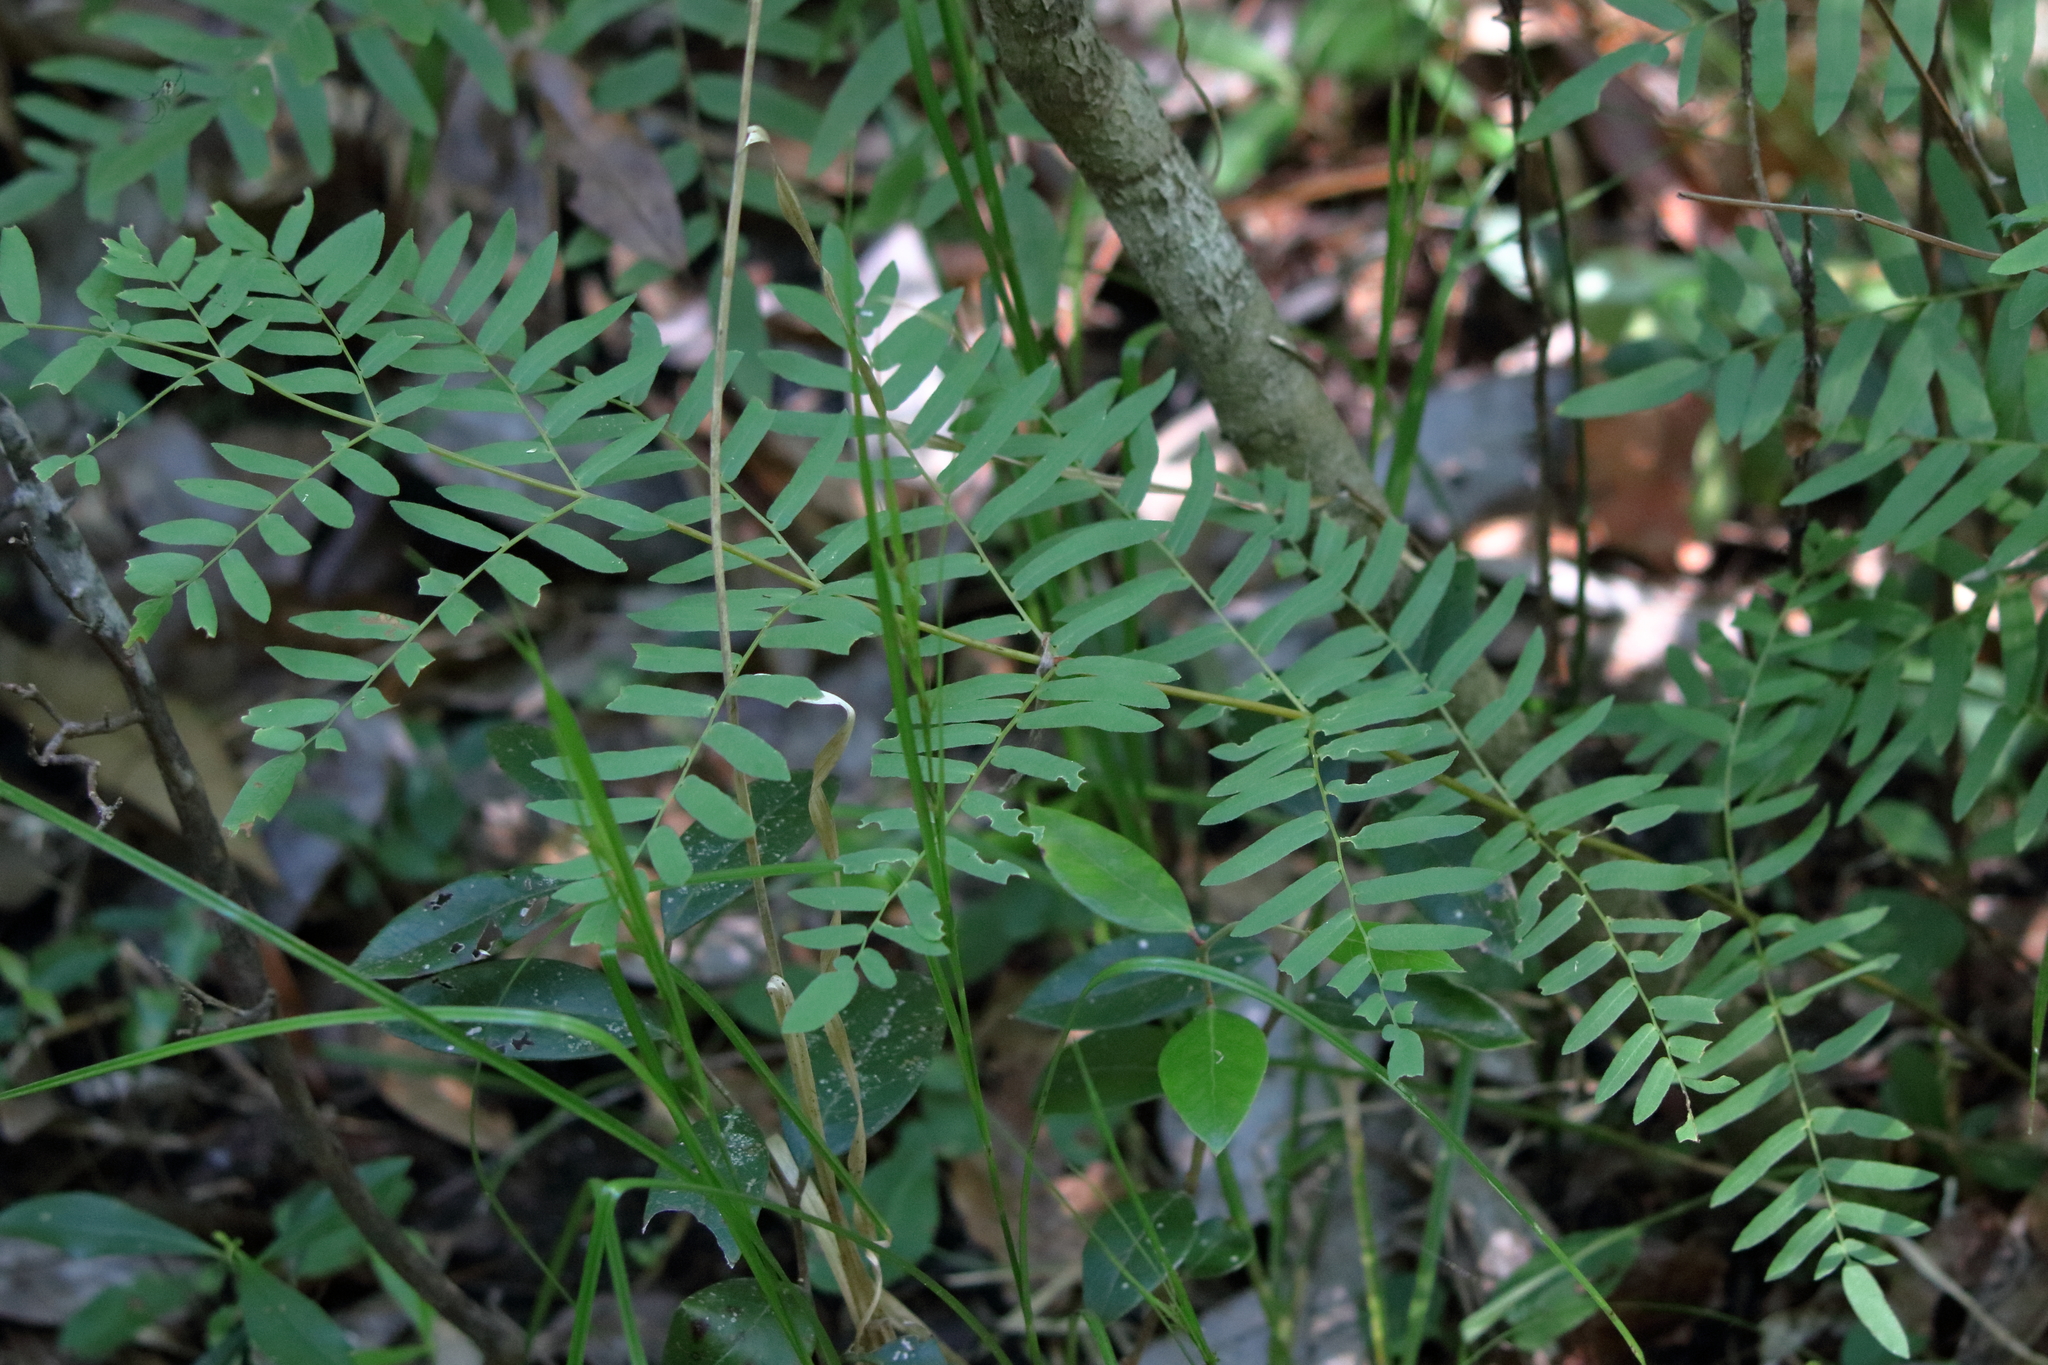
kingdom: Plantae
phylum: Tracheophyta
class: Polypodiopsida
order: Osmundales
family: Osmundaceae
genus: Osmunda
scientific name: Osmunda spectabilis
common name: American royal fern
